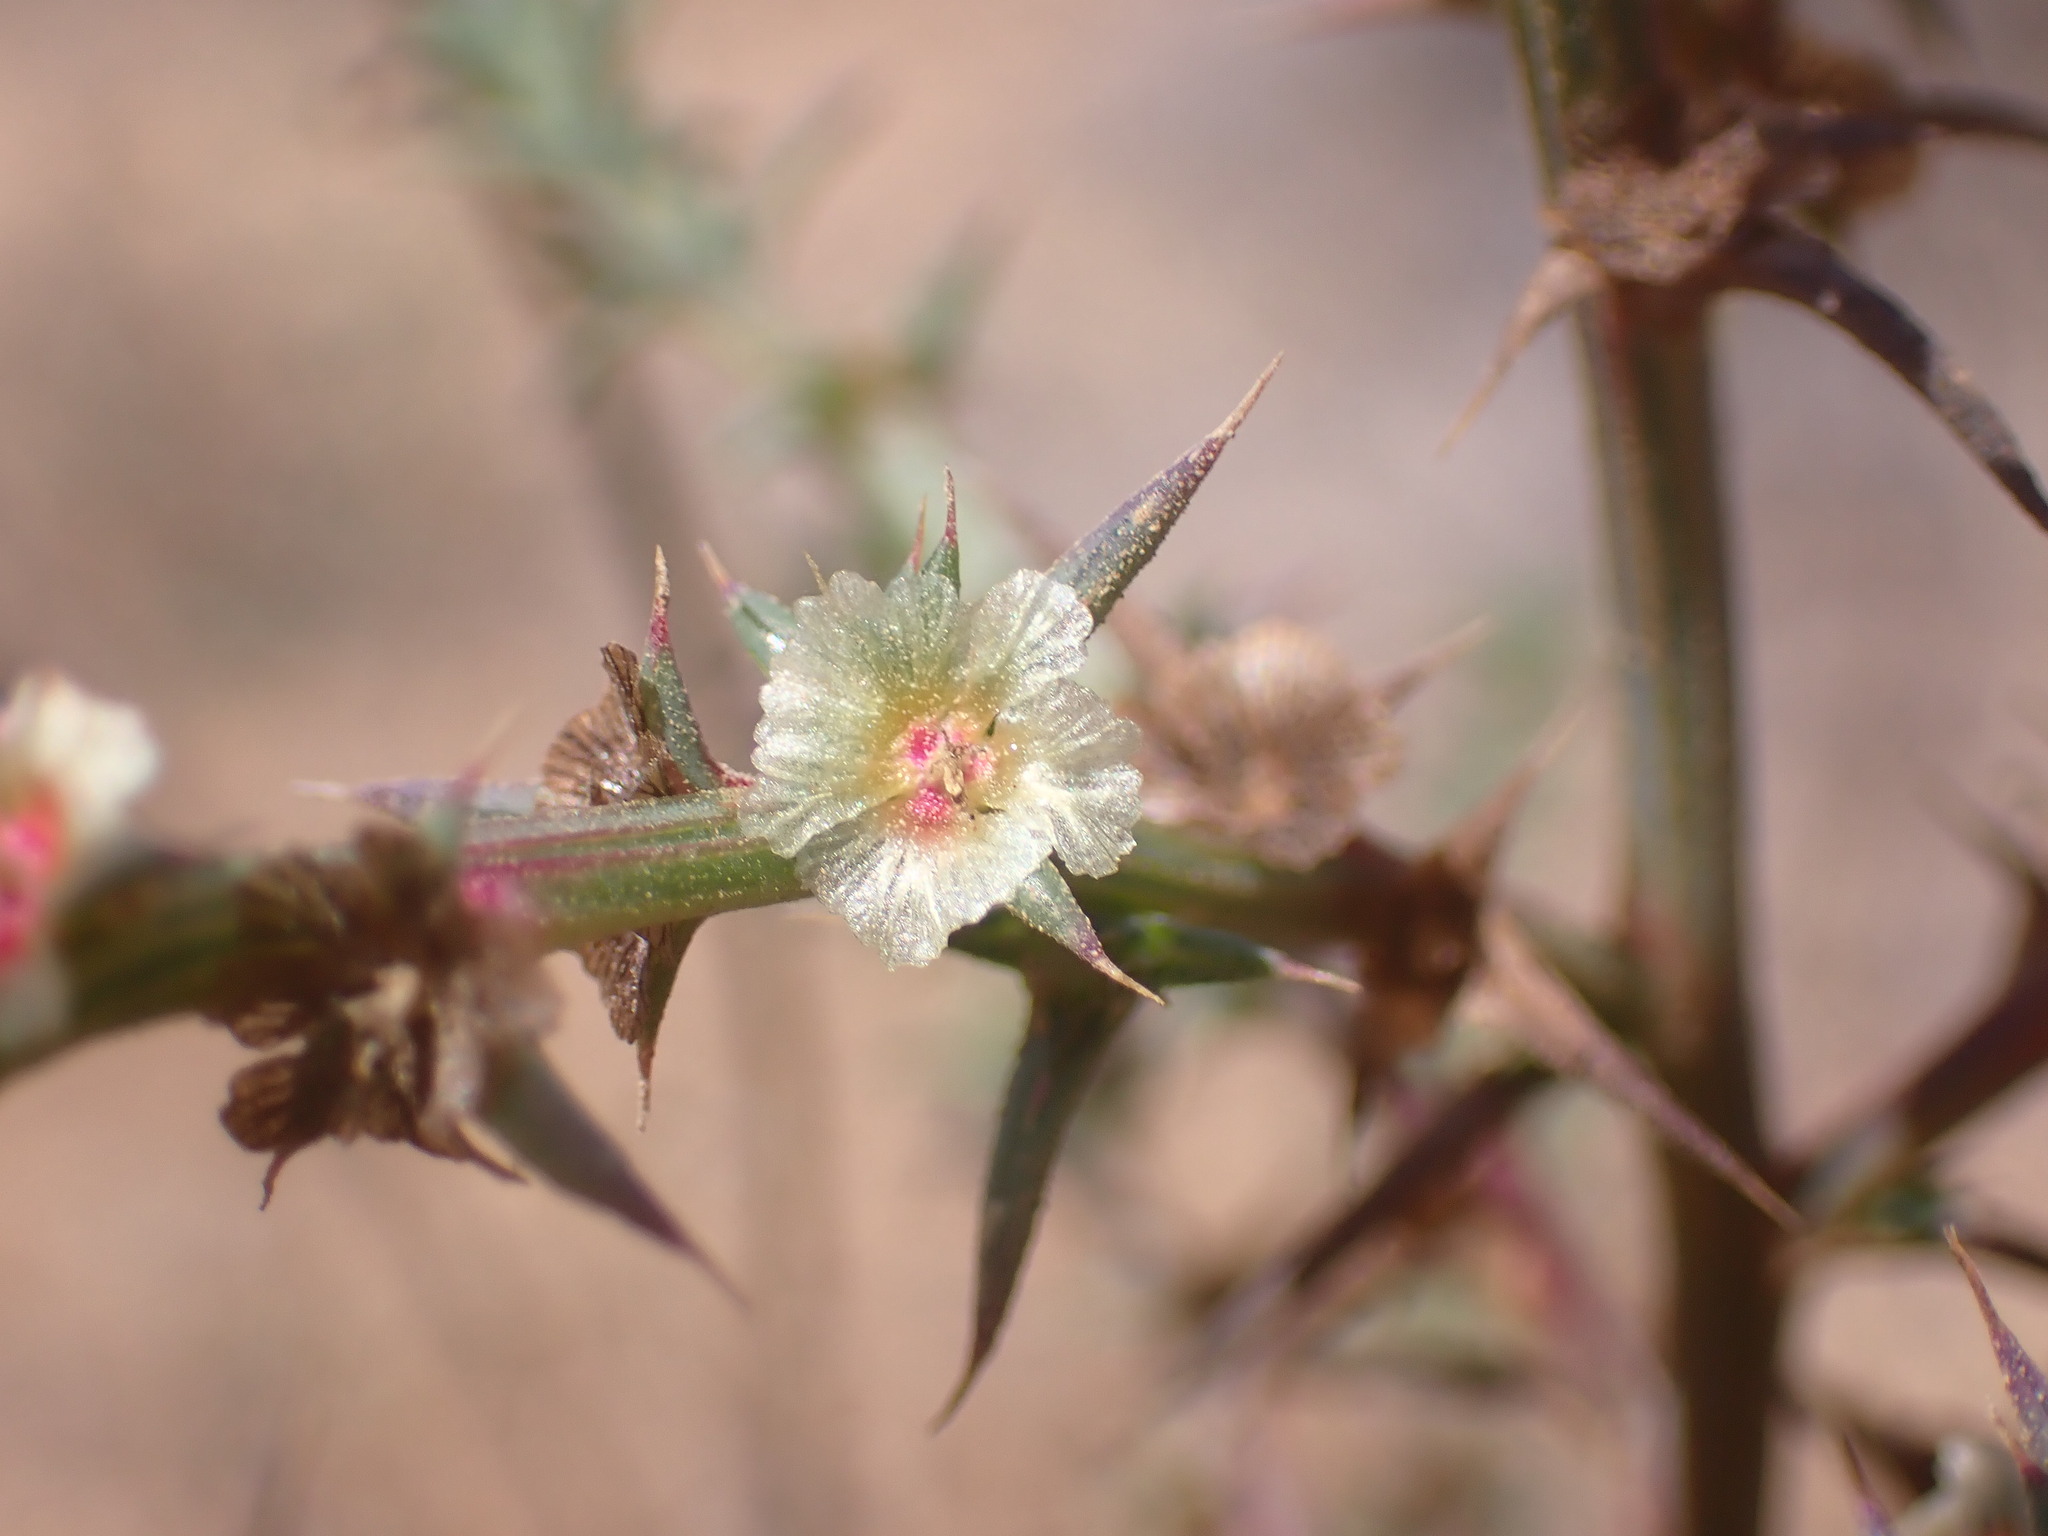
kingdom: Plantae
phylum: Tracheophyta
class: Magnoliopsida
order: Caryophyllales
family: Amaranthaceae
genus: Salsola
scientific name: Salsola australis
